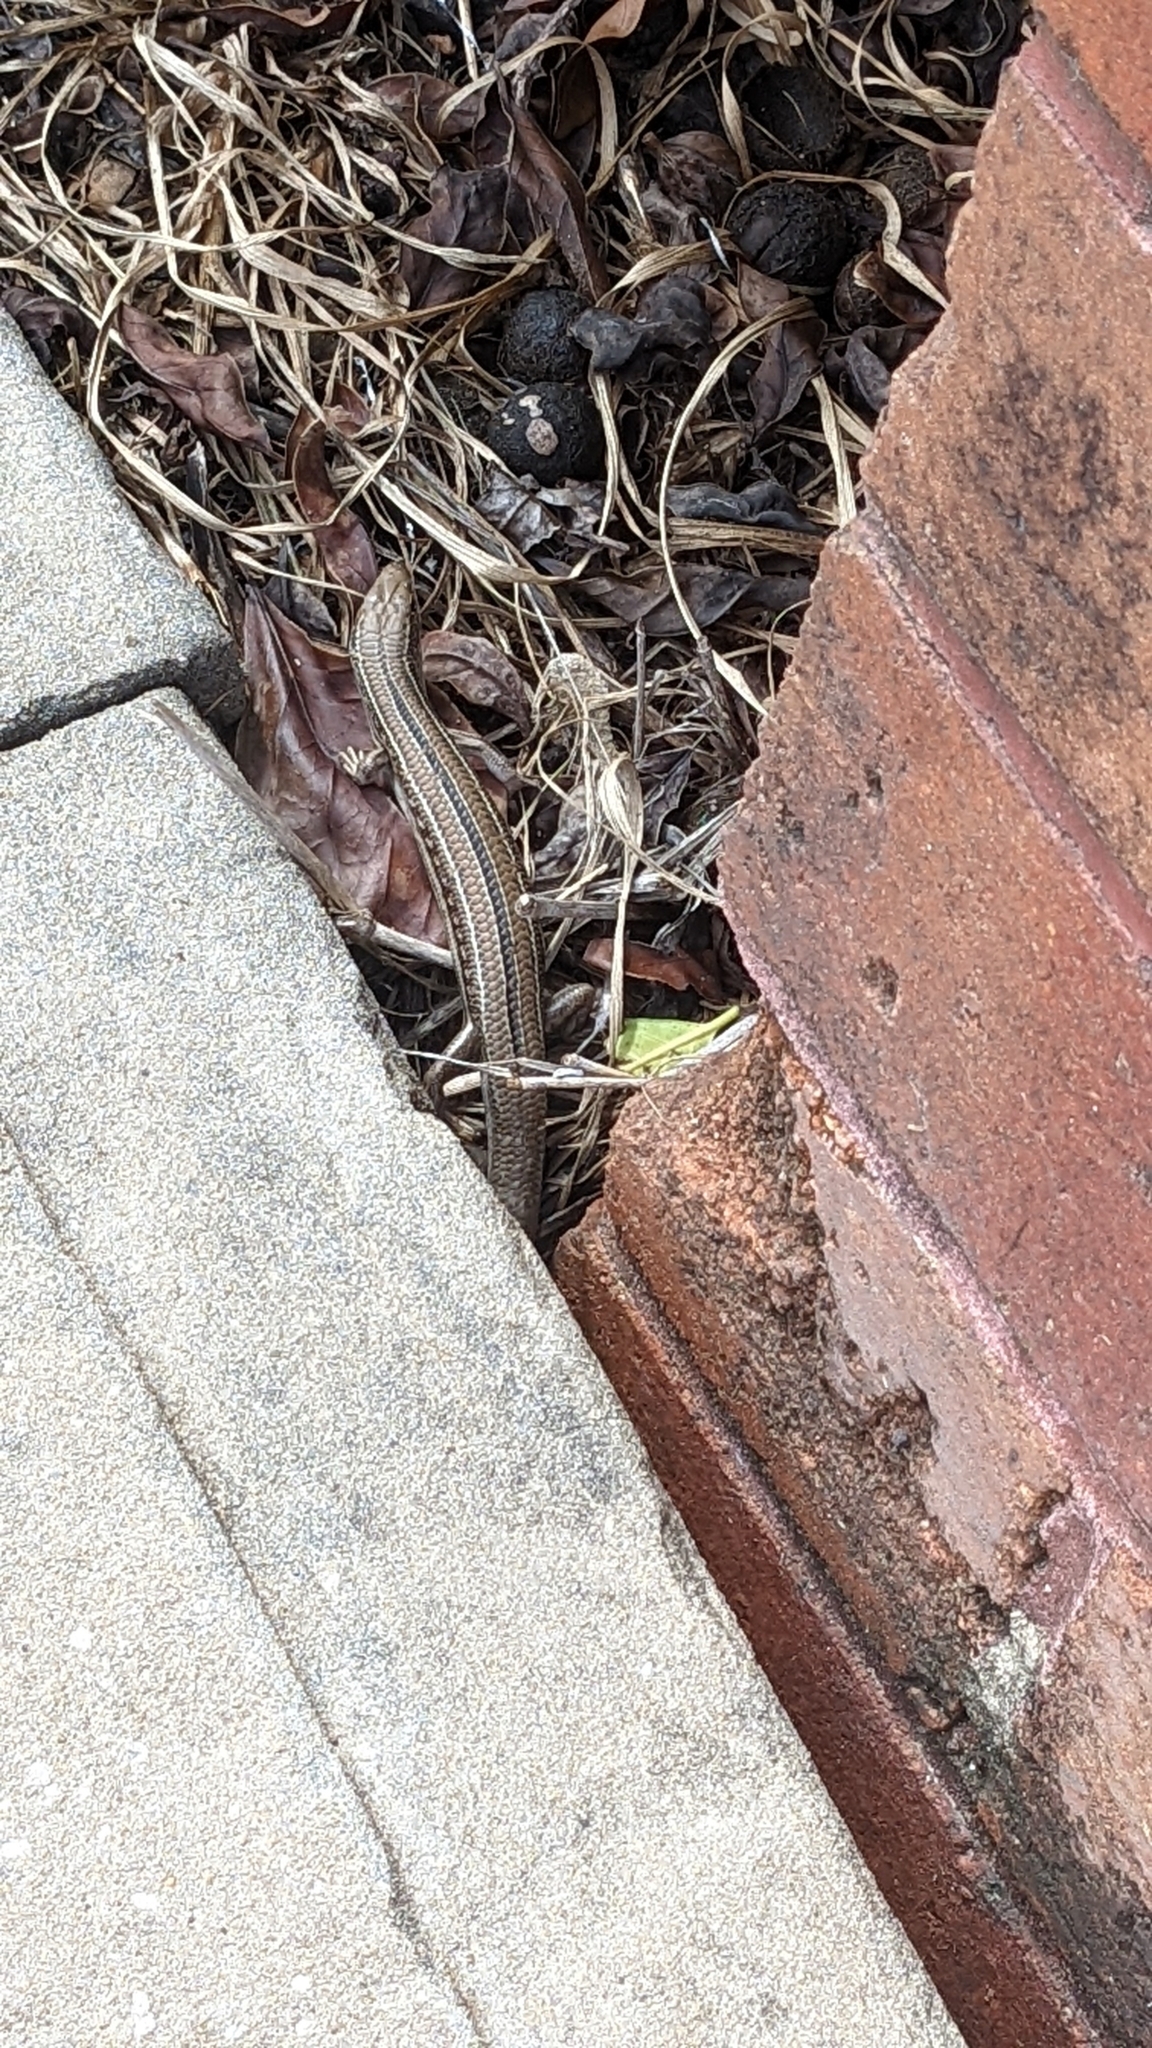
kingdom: Animalia
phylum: Chordata
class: Squamata
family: Scincidae
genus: Ctenotus
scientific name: Ctenotus robustus
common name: Robust ctenotus
